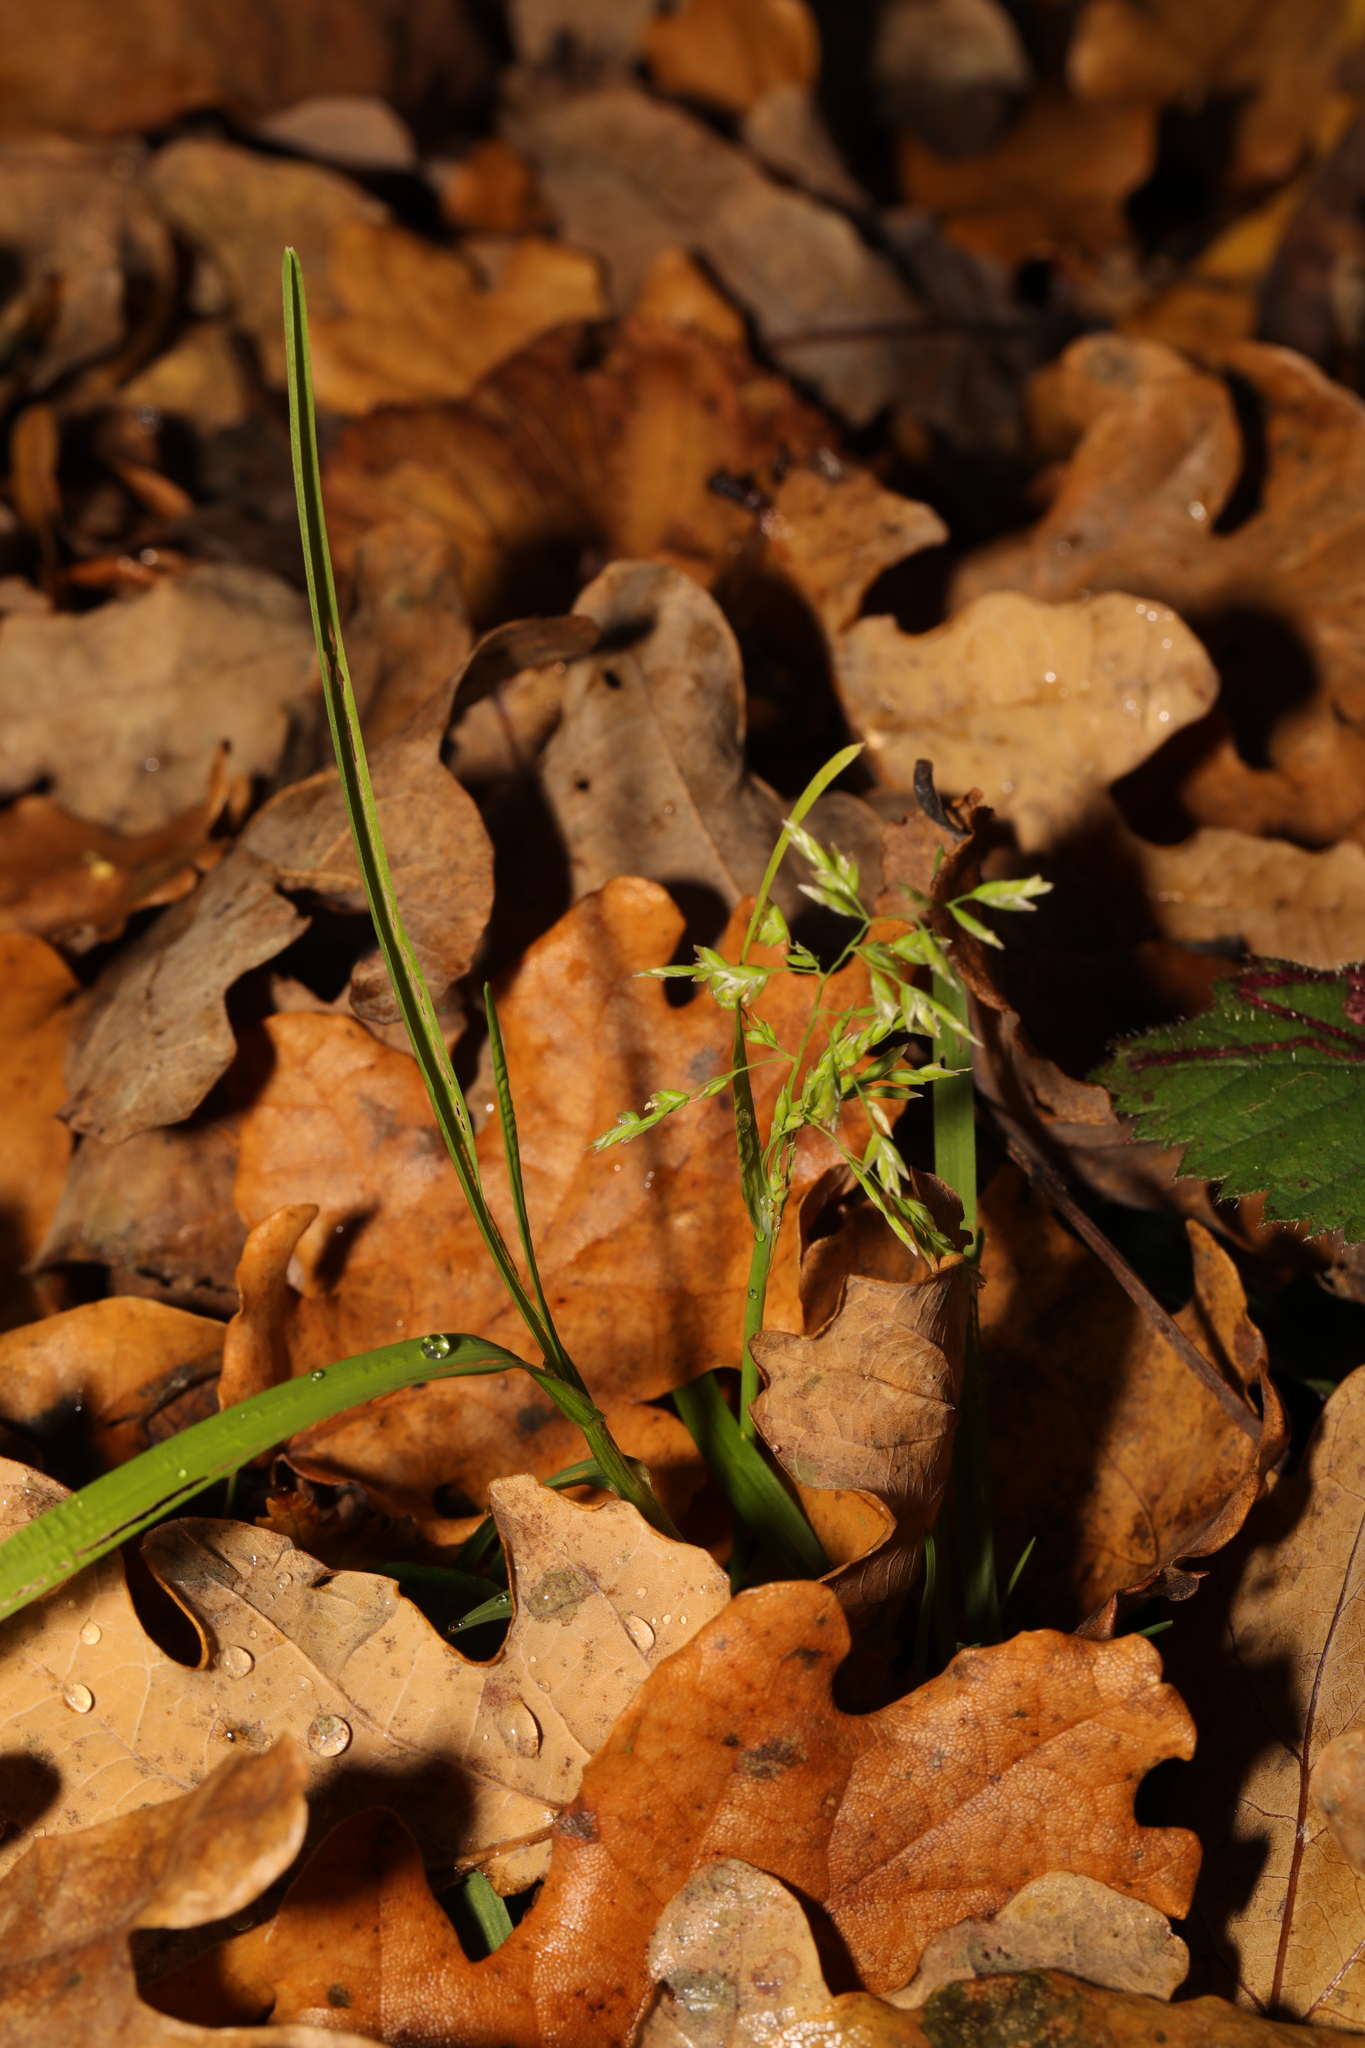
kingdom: Plantae
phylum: Tracheophyta
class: Liliopsida
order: Poales
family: Poaceae
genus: Poa
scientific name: Poa annua
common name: Annual bluegrass
